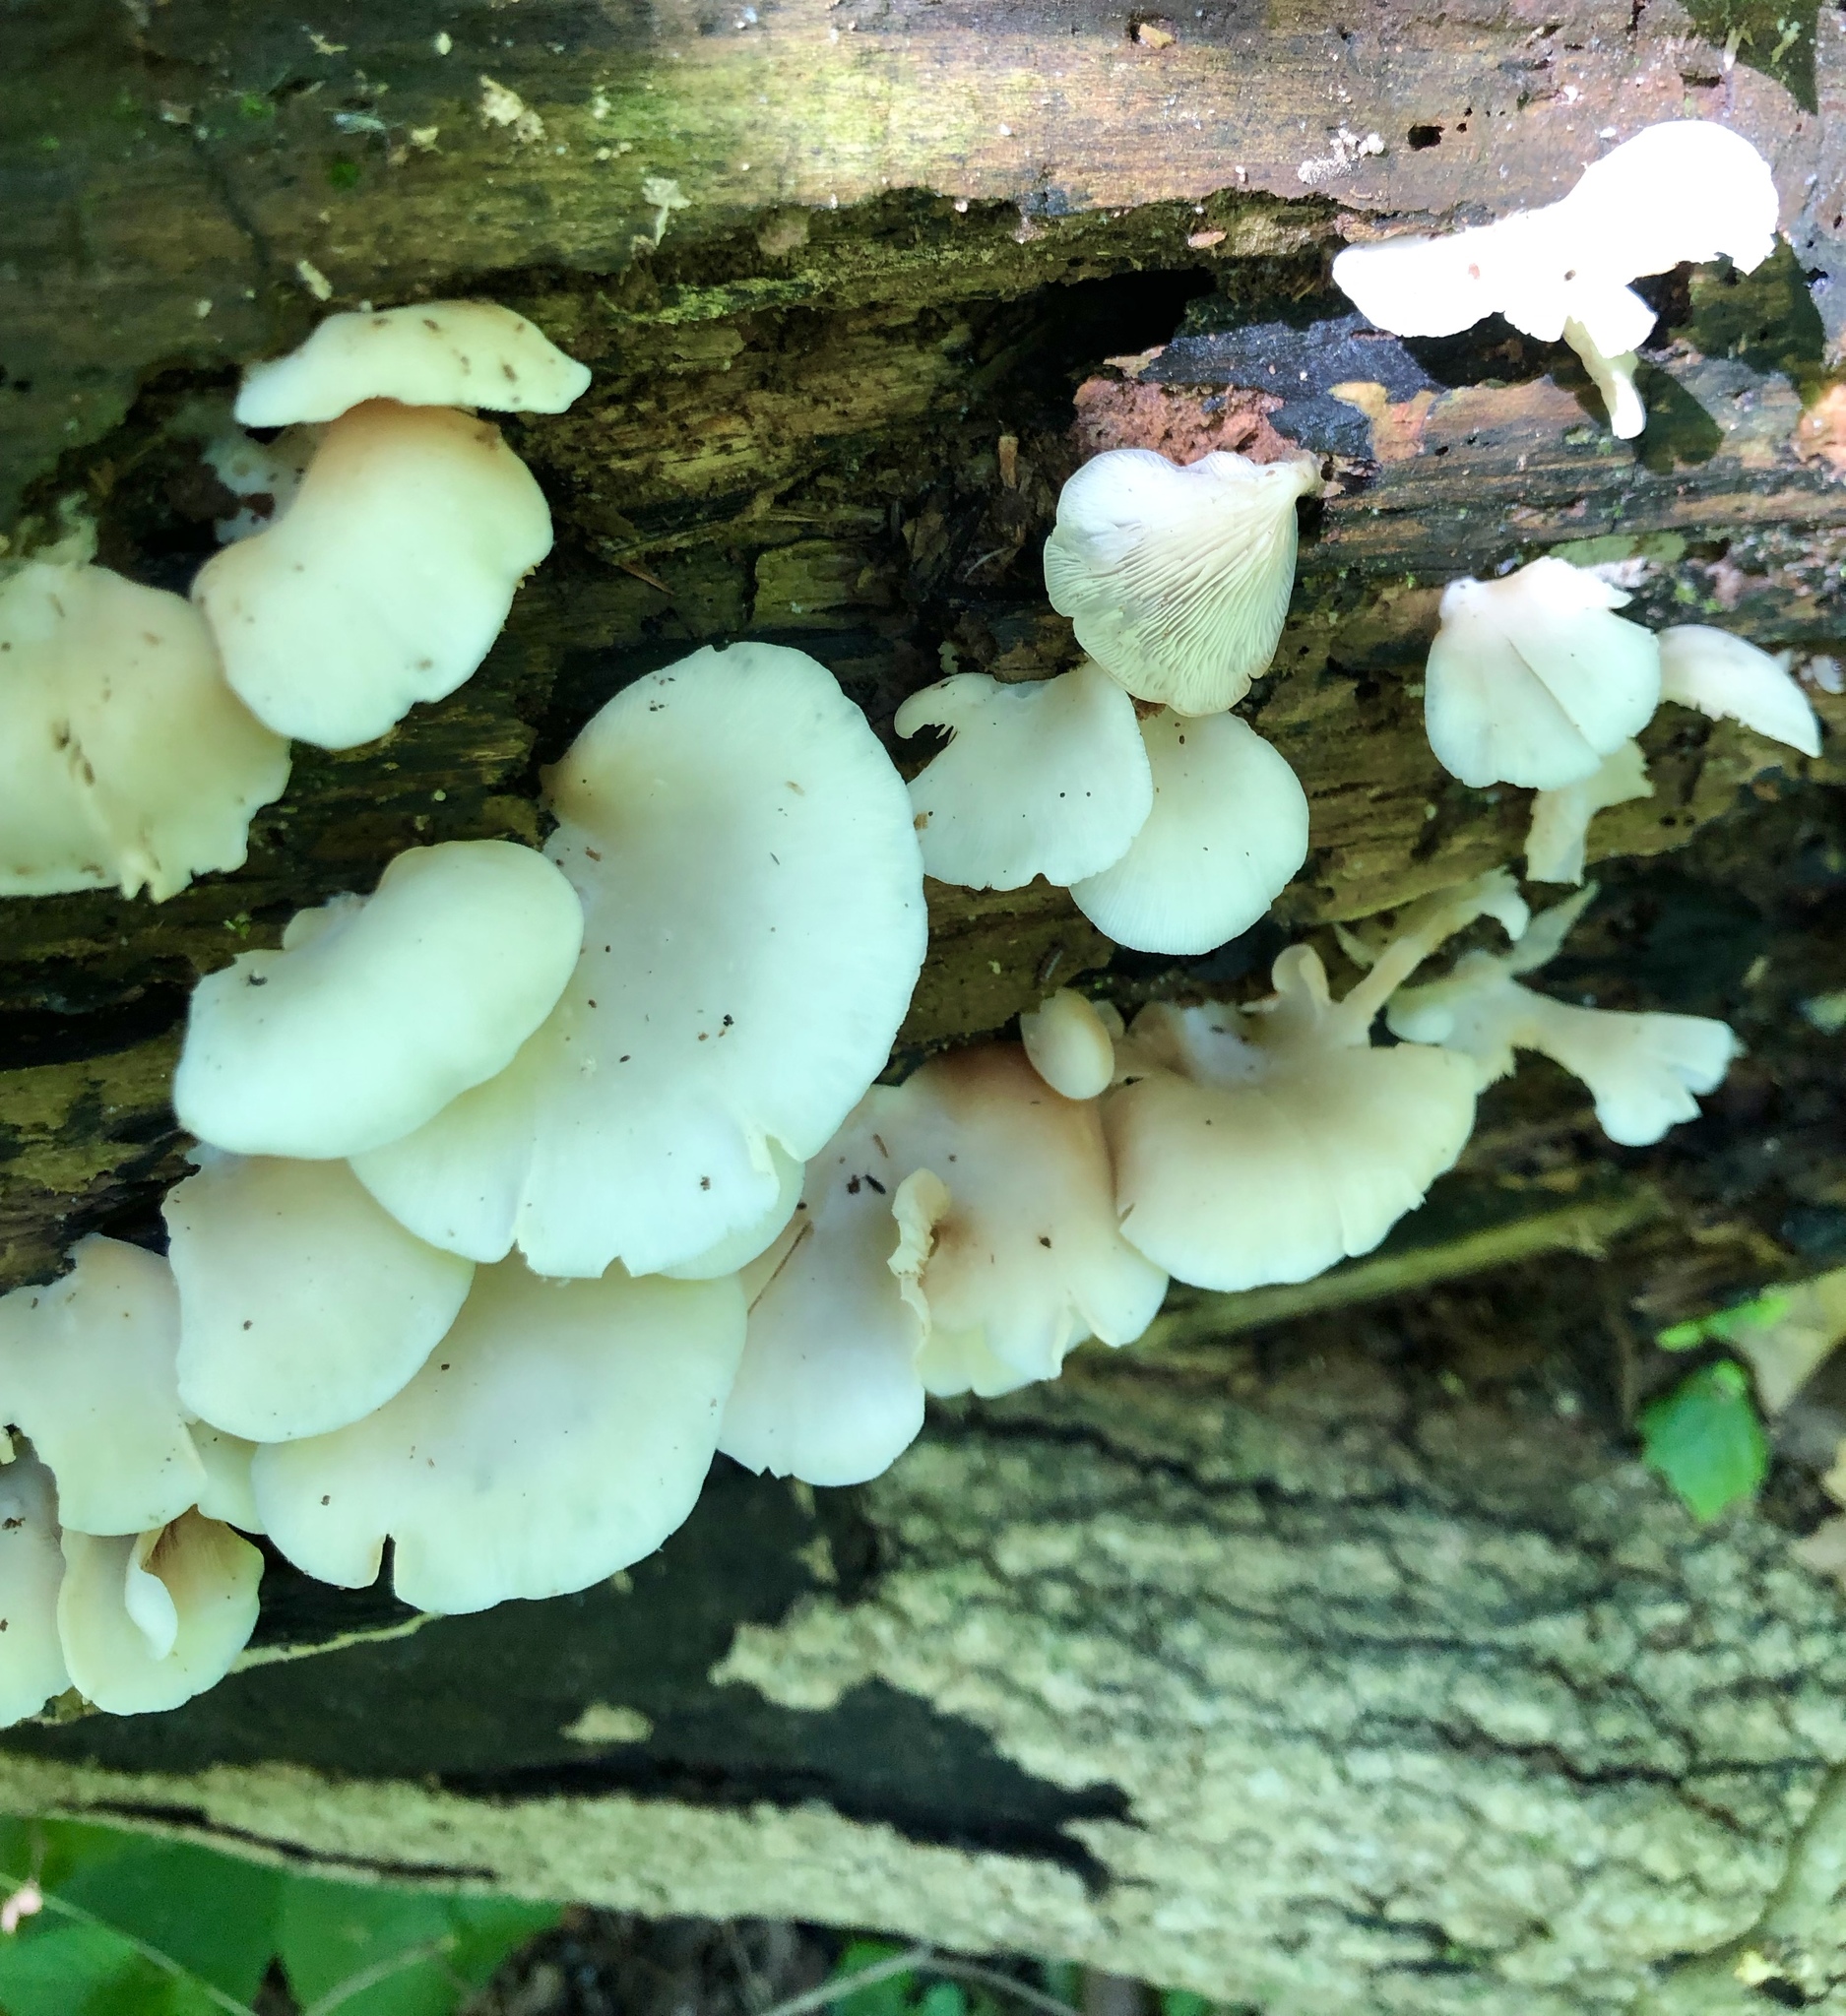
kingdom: Fungi
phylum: Basidiomycota
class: Agaricomycetes
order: Agaricales
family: Crepidotaceae
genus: Crepidotus
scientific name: Crepidotus applanatus
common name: Flat crep
